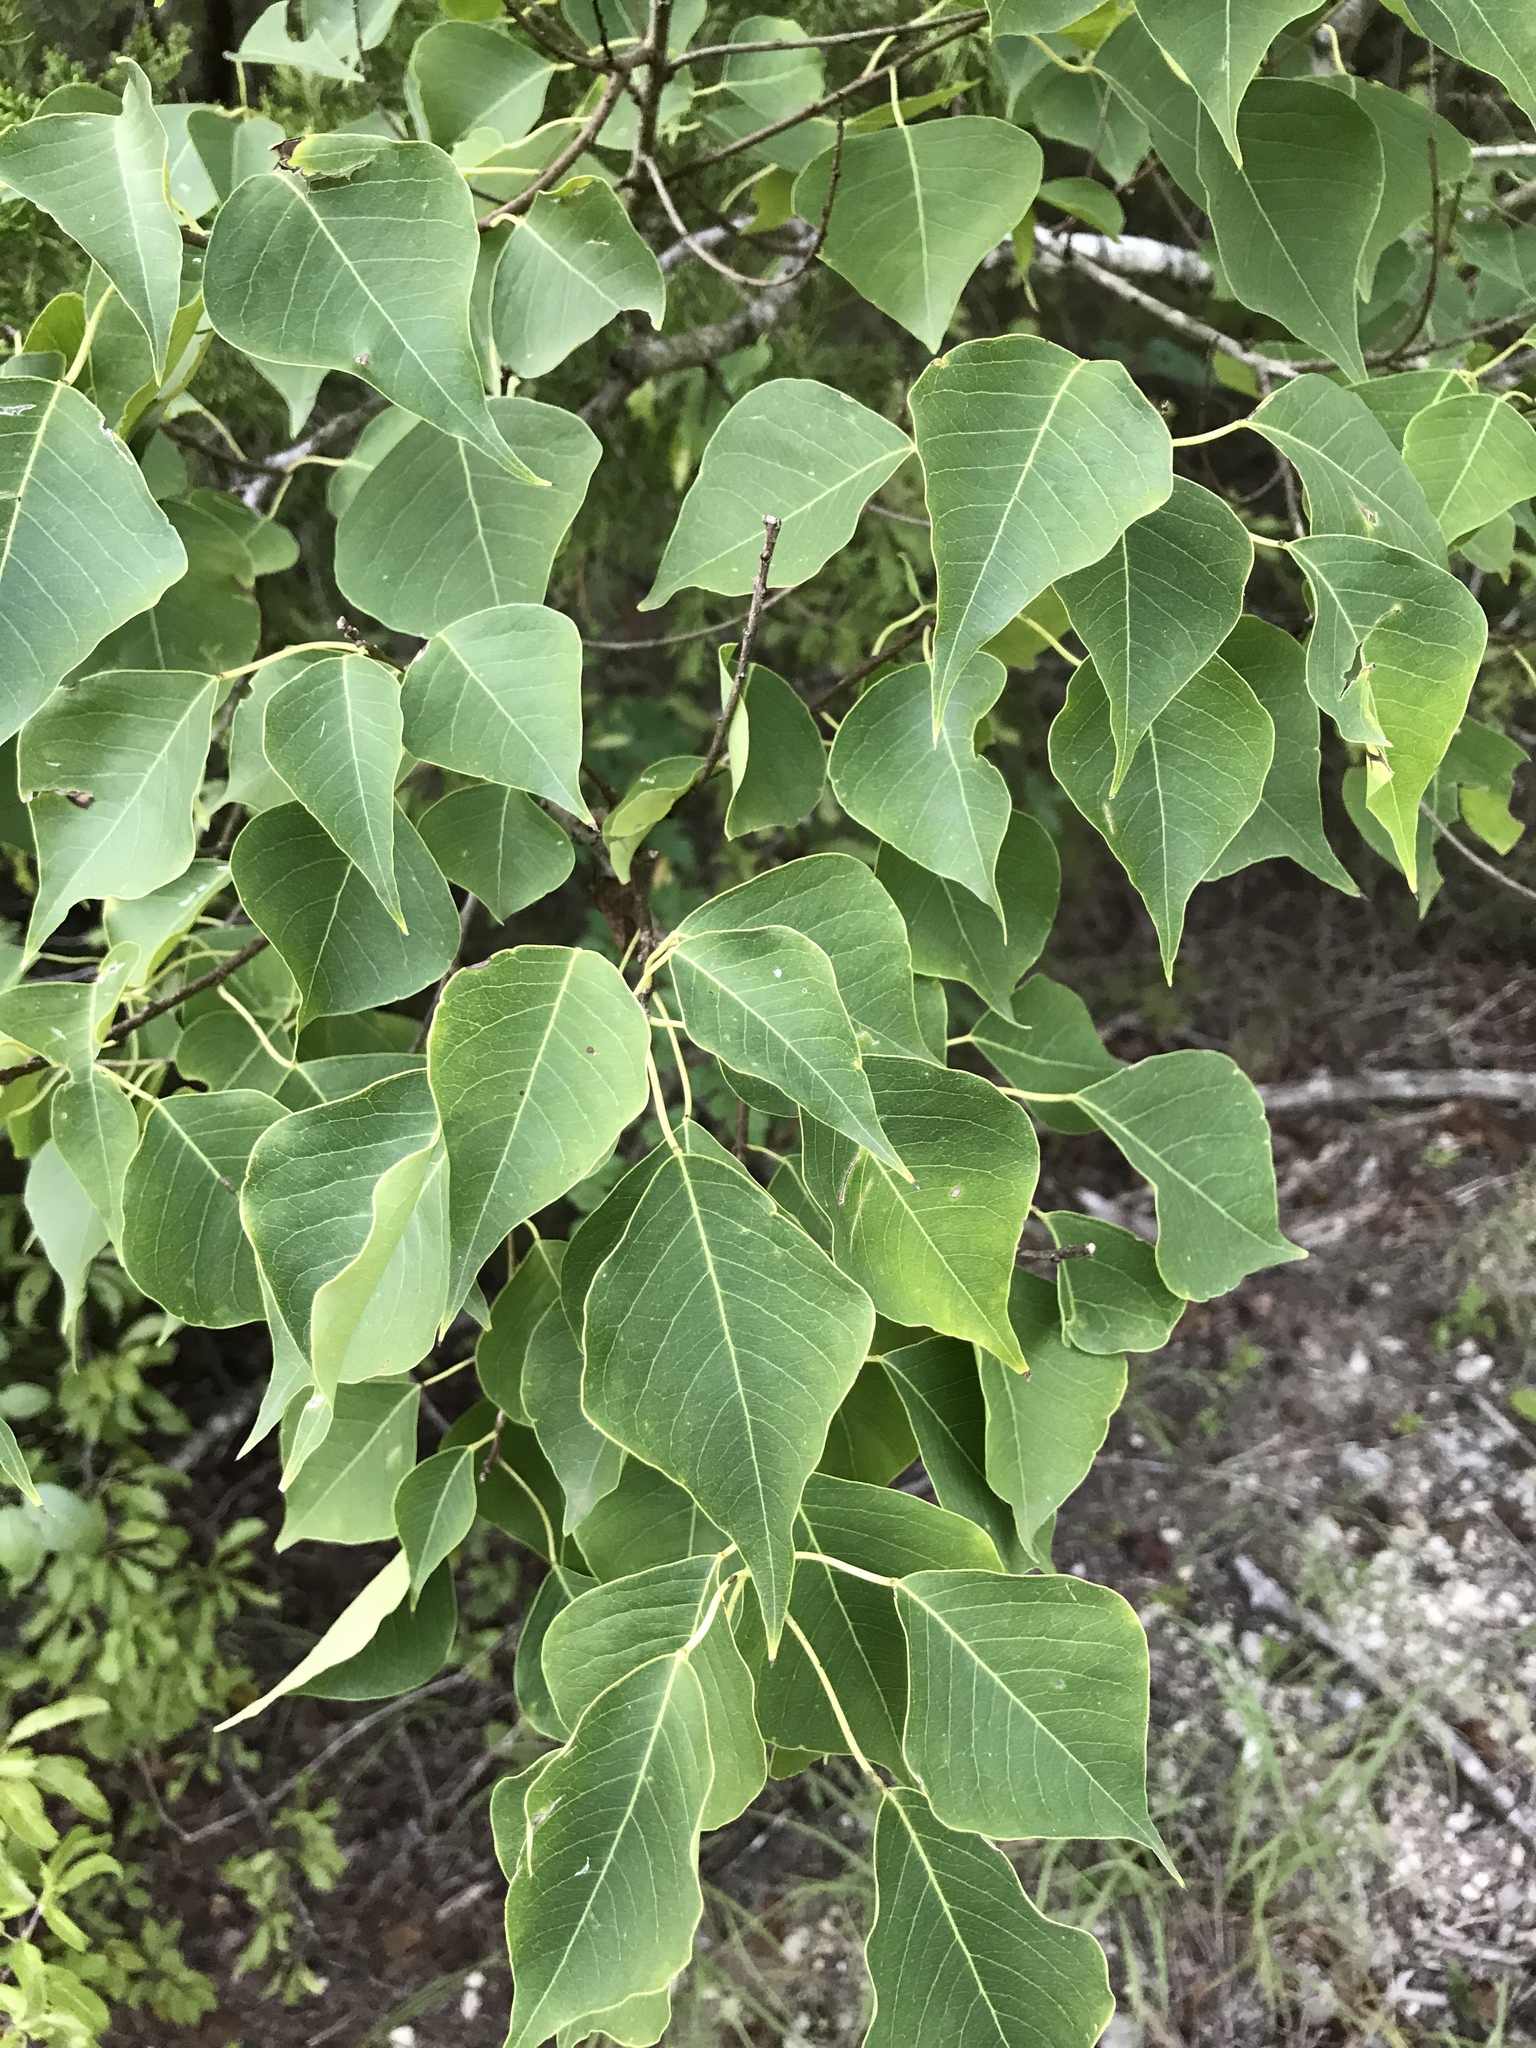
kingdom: Plantae
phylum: Tracheophyta
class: Magnoliopsida
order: Malpighiales
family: Euphorbiaceae
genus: Triadica
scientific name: Triadica sebifera
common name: Chinese tallow
